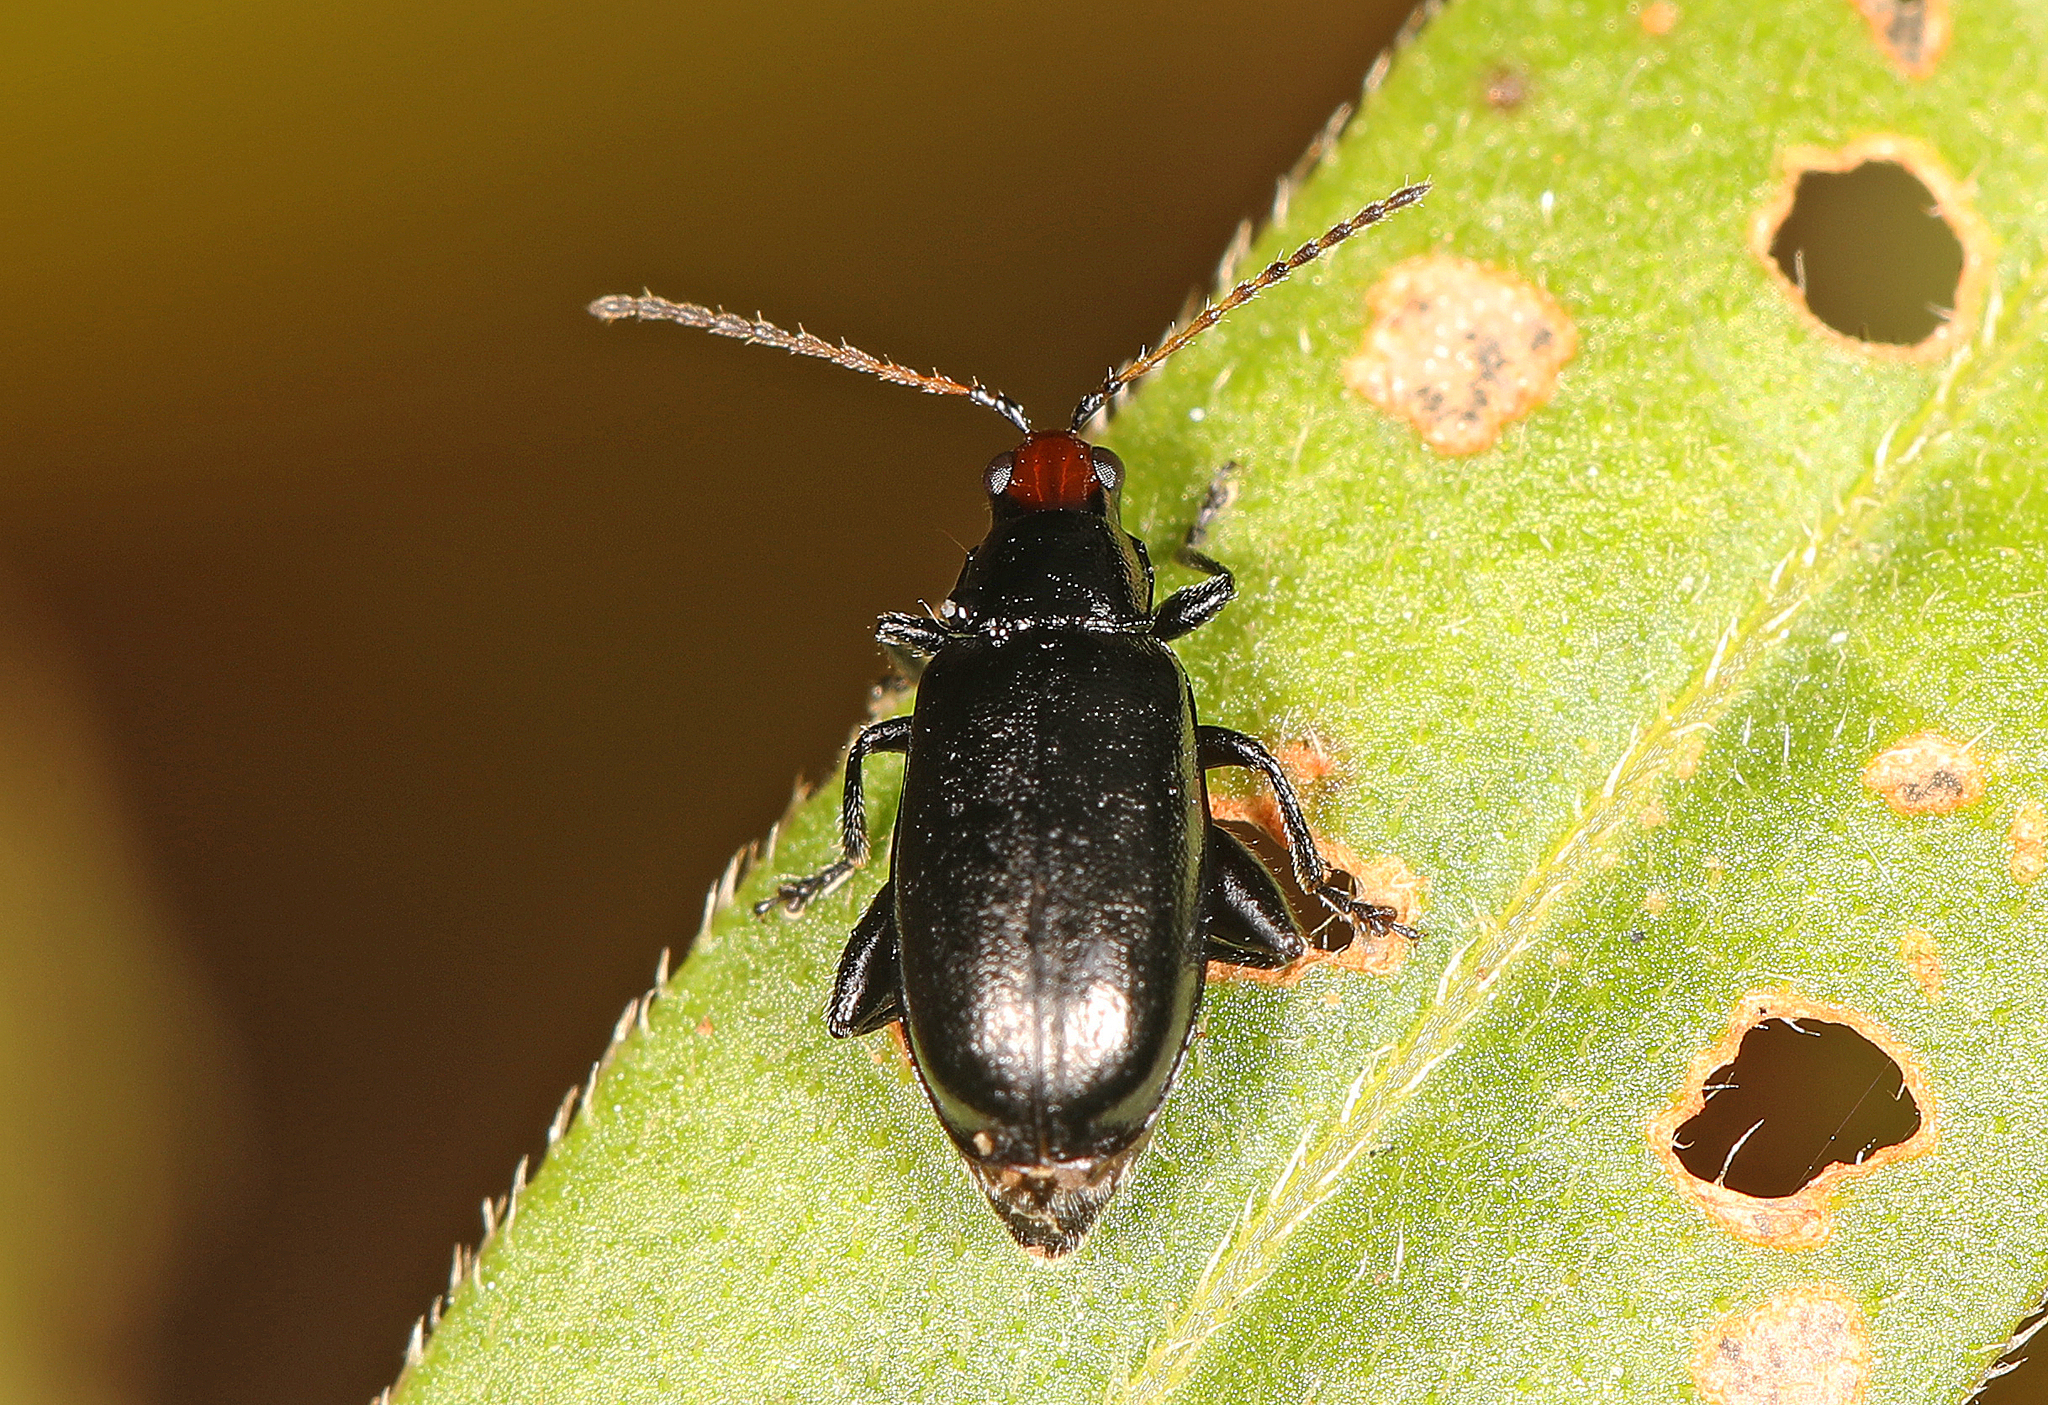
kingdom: Animalia
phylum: Arthropoda
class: Insecta
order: Coleoptera
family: Chrysomelidae
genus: Systena
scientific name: Systena frontalis
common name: Red-headed flea beetle
